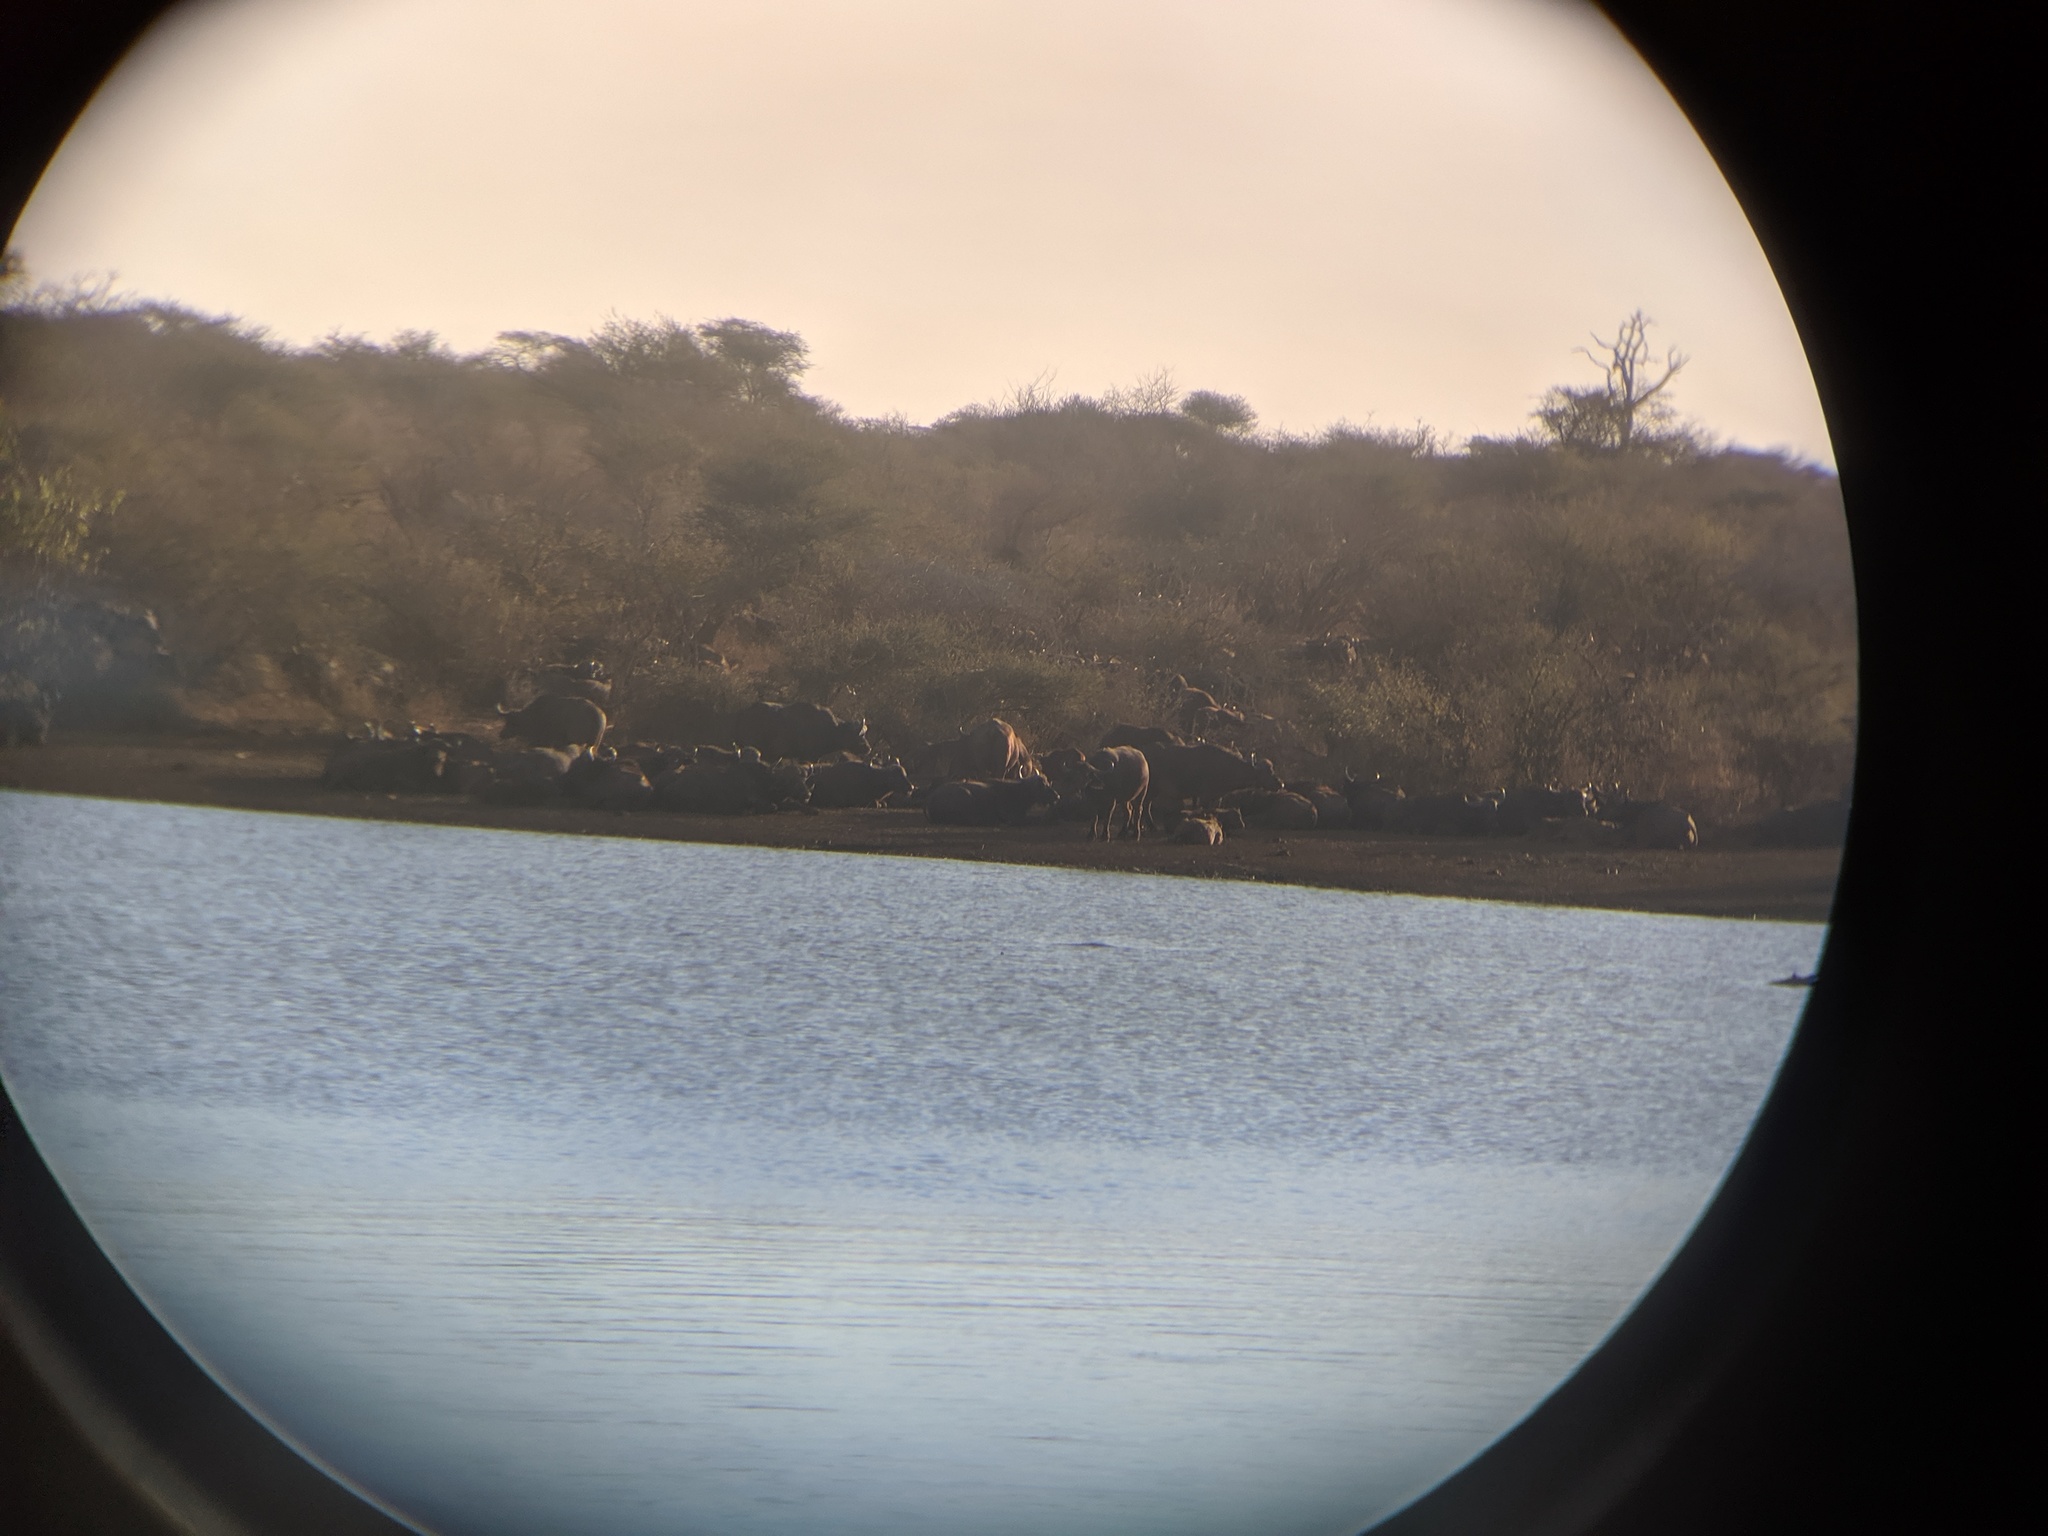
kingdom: Animalia
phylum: Chordata
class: Mammalia
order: Artiodactyla
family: Bovidae
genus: Syncerus
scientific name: Syncerus caffer
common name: African buffalo
